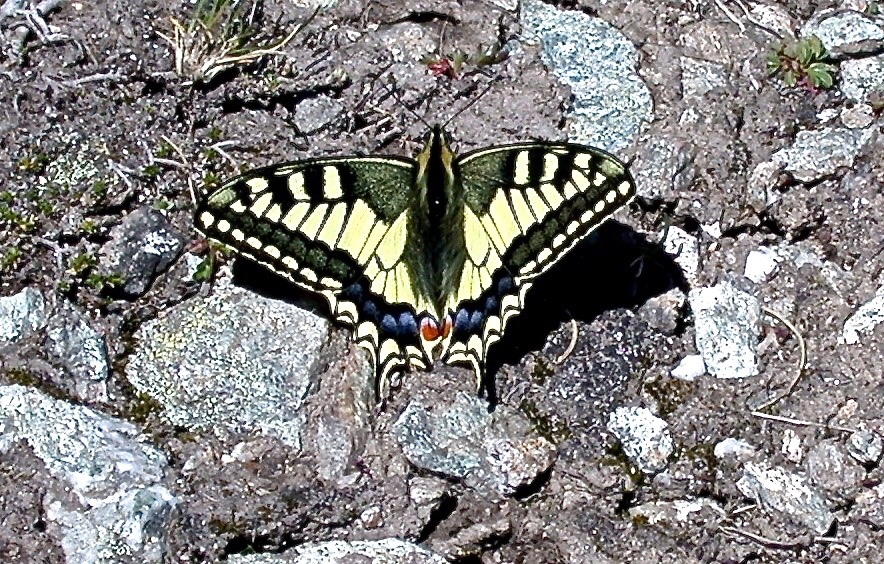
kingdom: Animalia
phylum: Arthropoda
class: Insecta
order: Lepidoptera
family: Papilionidae
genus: Papilio
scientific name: Papilio machaon
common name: Swallowtail
